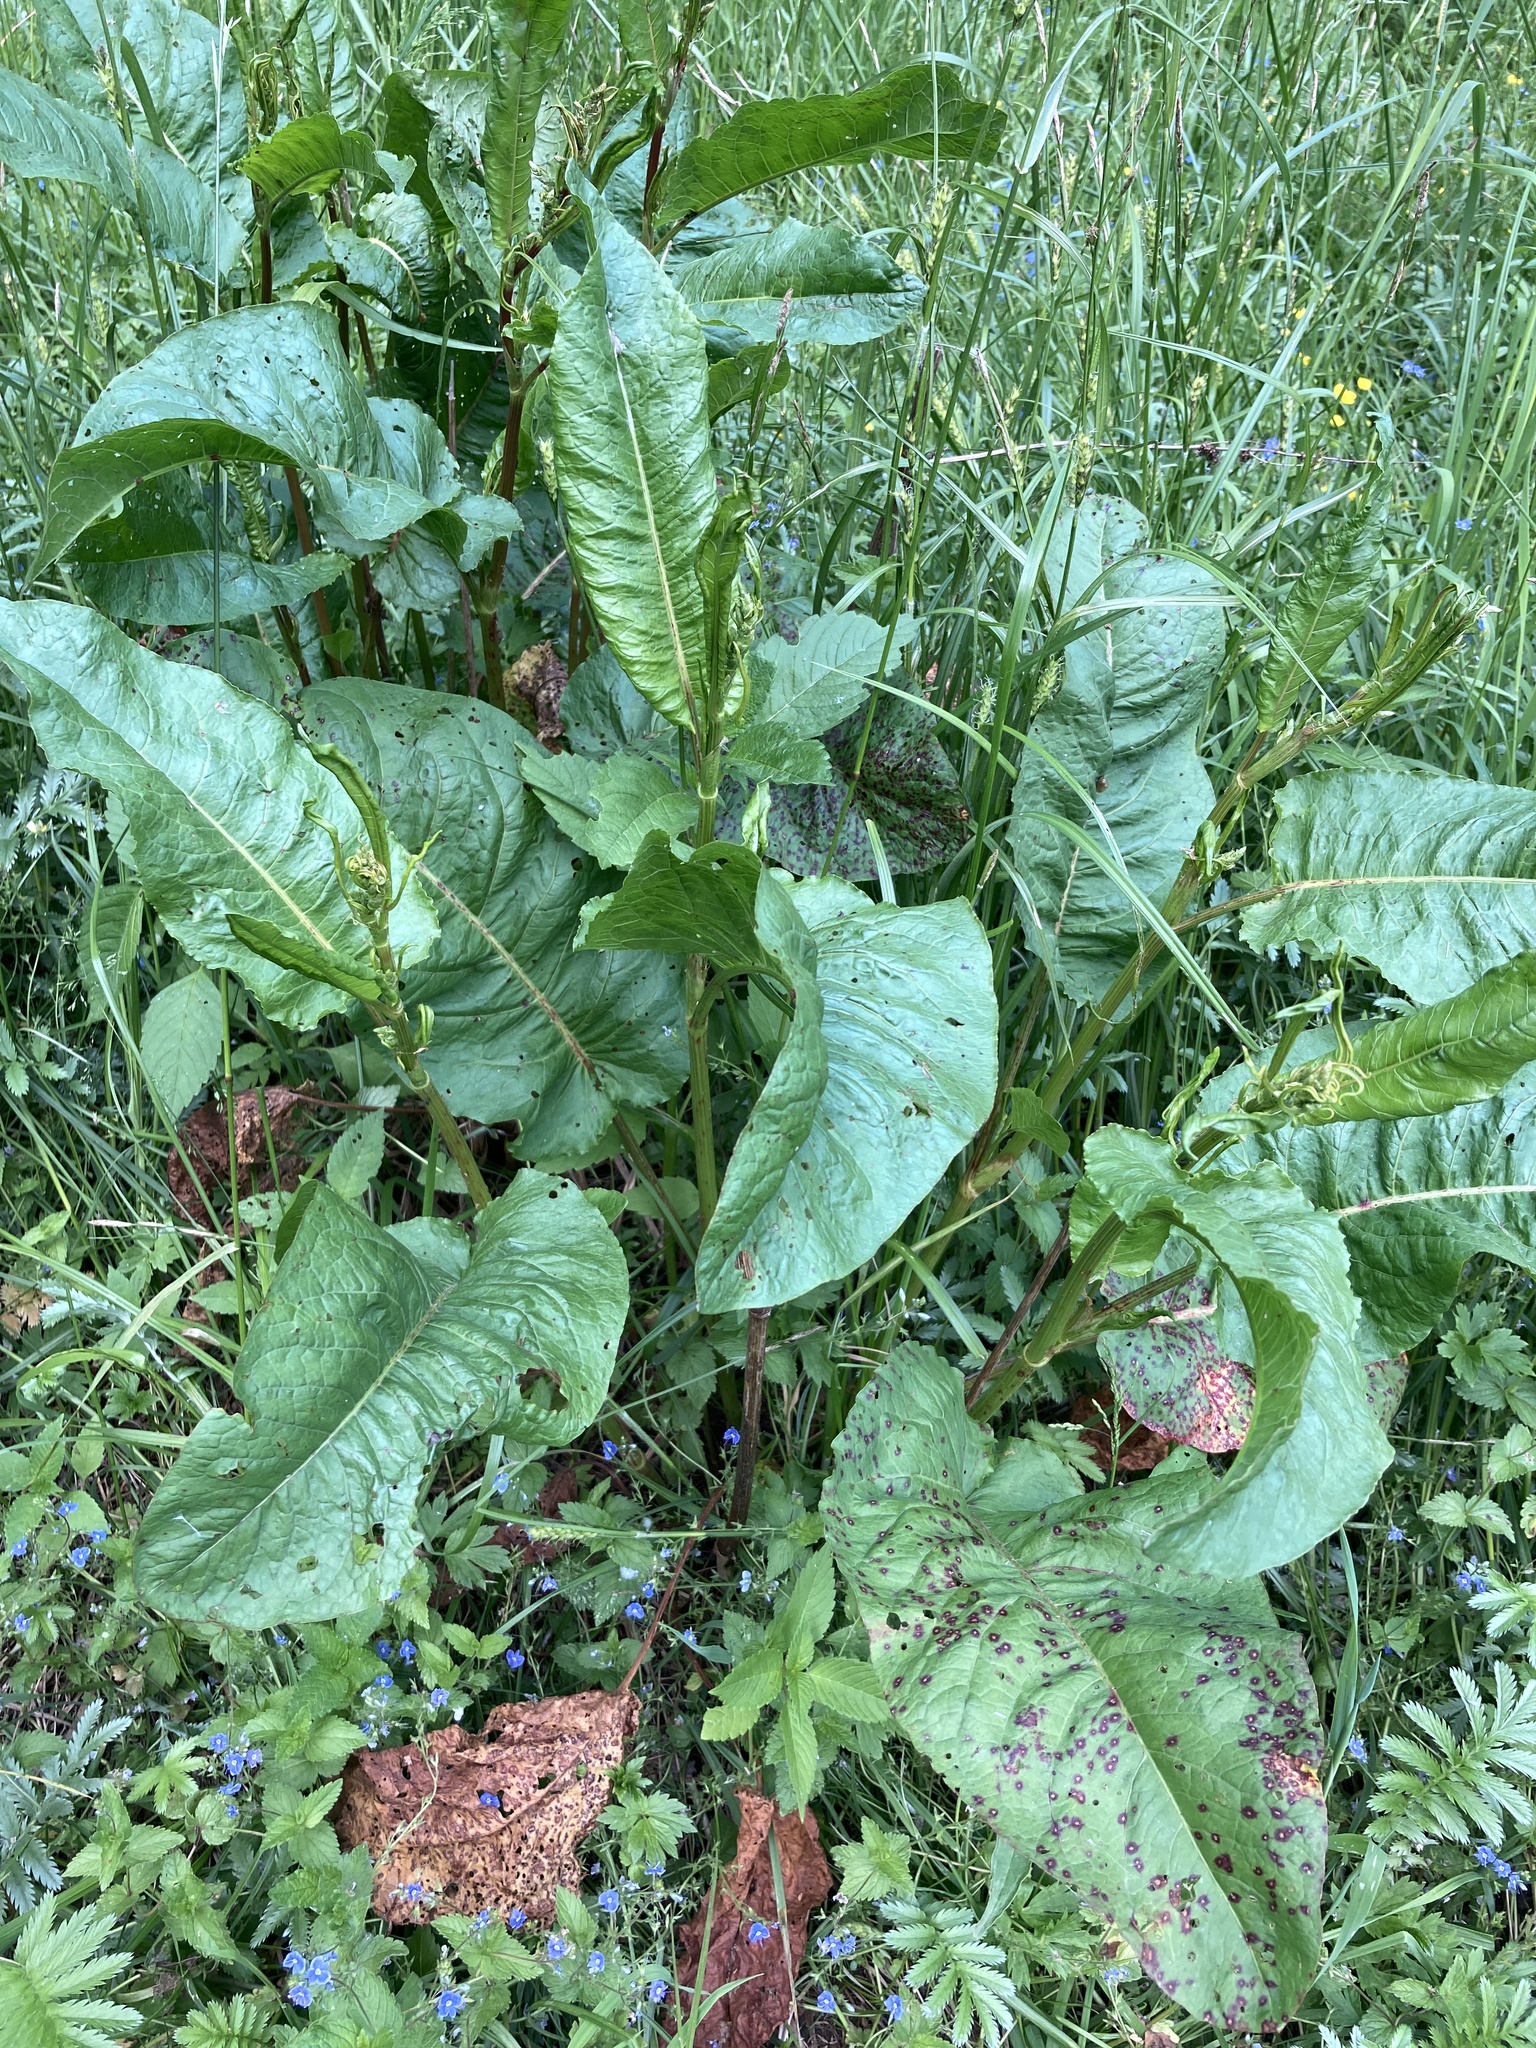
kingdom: Plantae
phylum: Tracheophyta
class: Magnoliopsida
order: Caryophyllales
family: Polygonaceae
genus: Rumex
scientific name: Rumex obtusifolius
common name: Bitter dock
